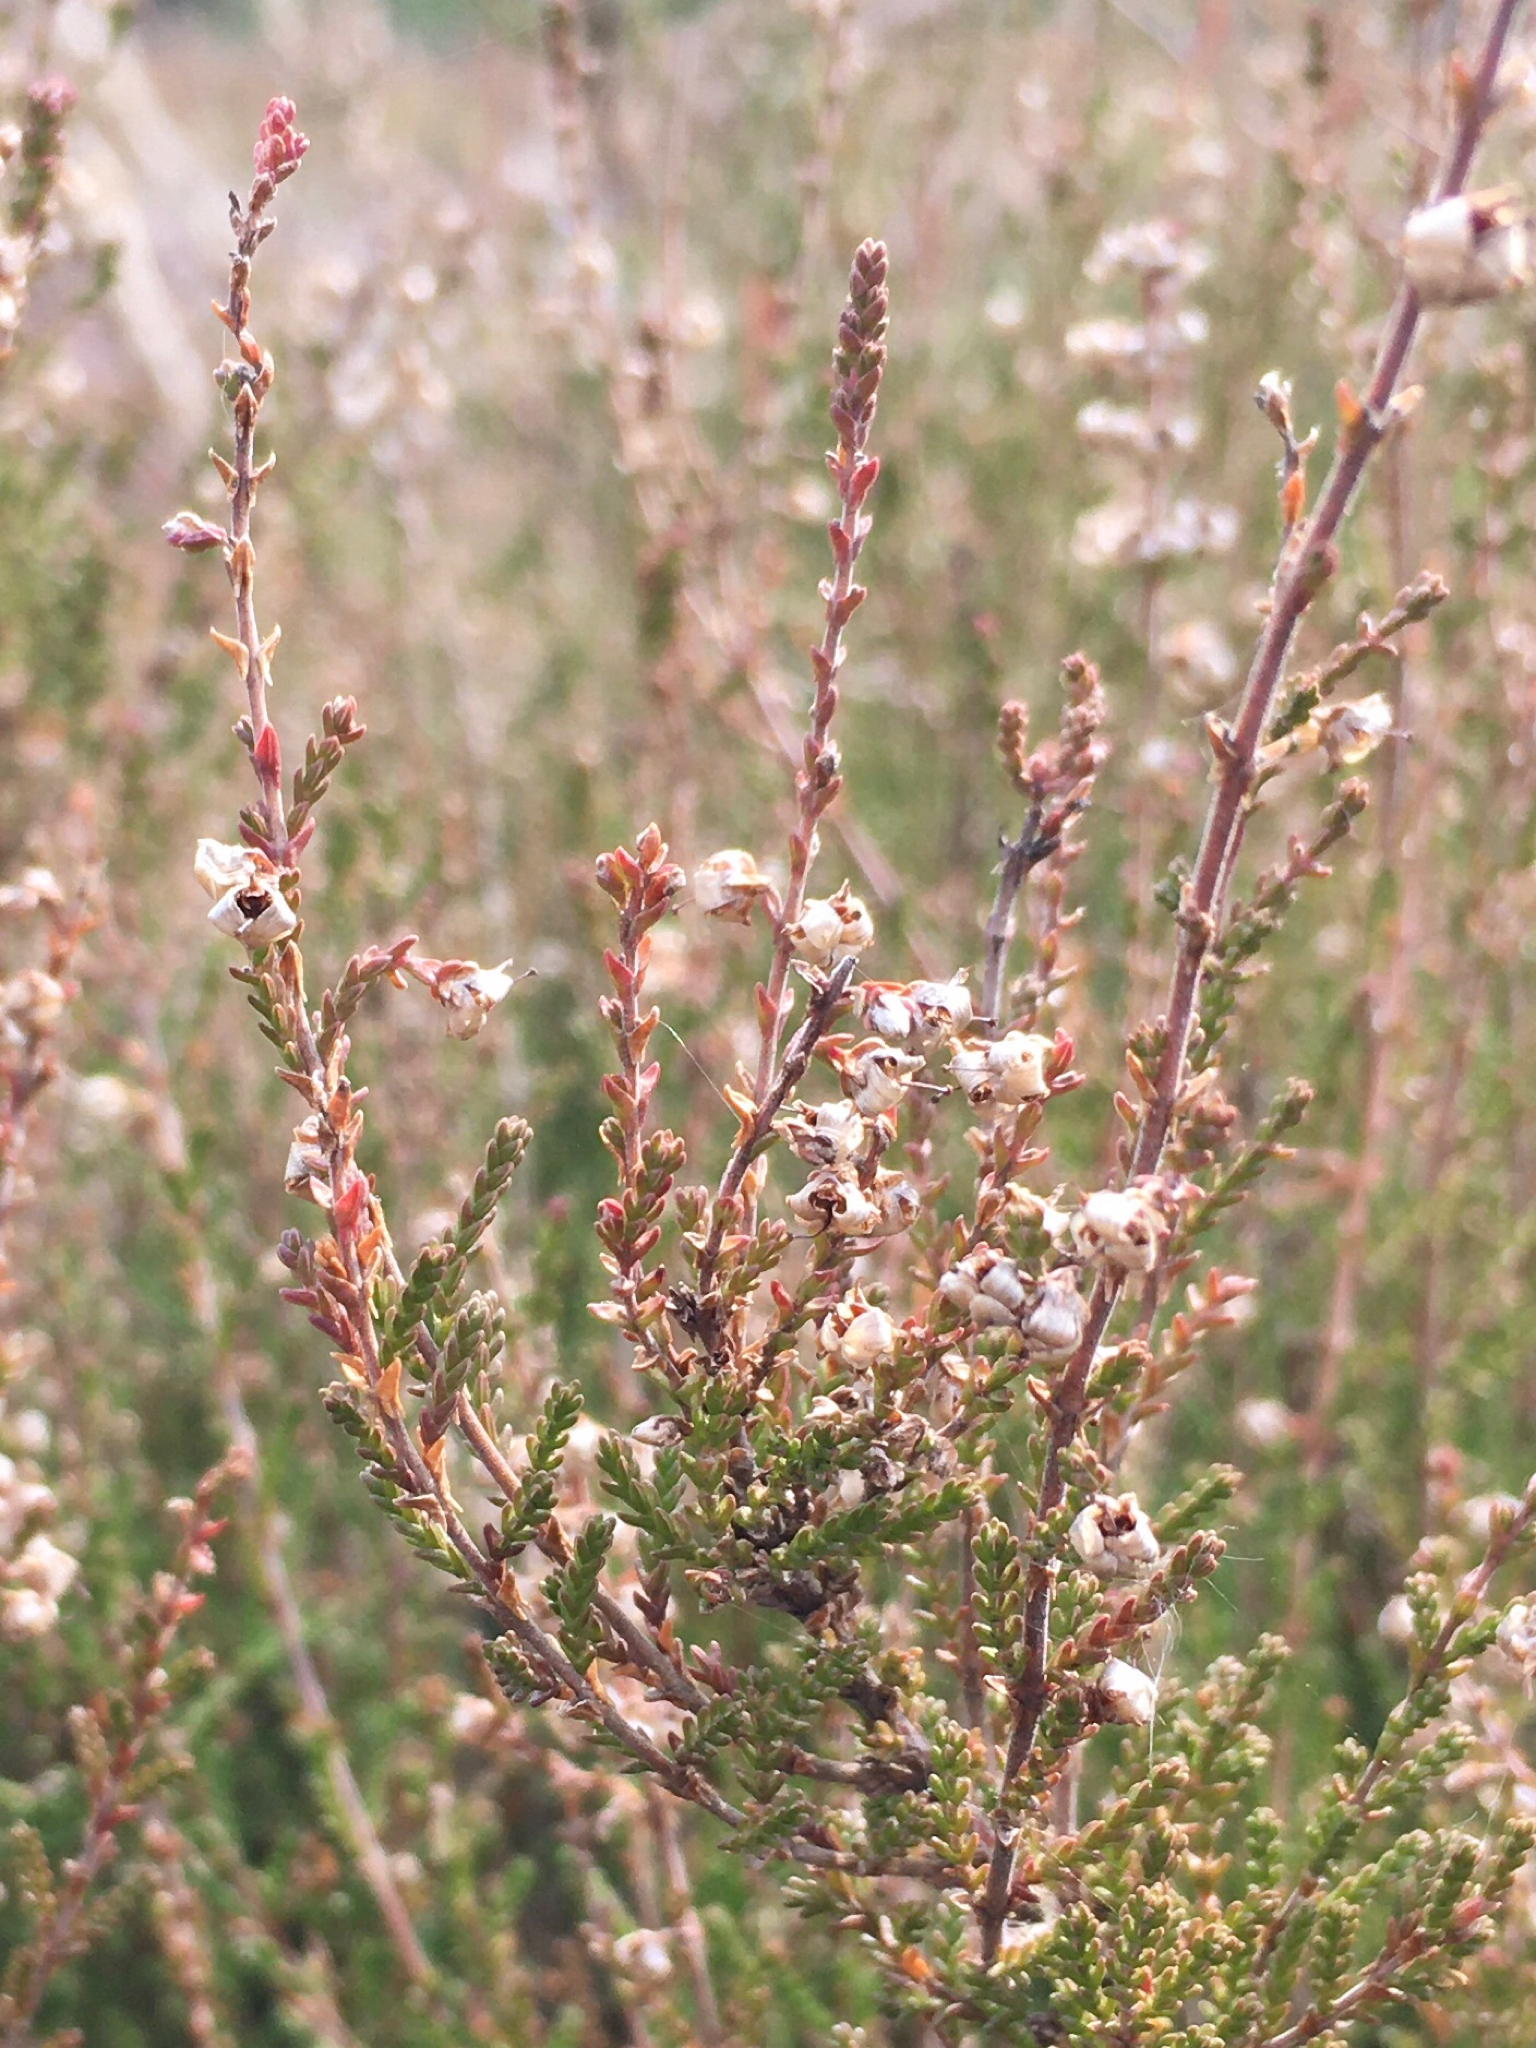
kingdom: Plantae
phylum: Tracheophyta
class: Magnoliopsida
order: Ericales
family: Ericaceae
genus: Calluna
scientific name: Calluna vulgaris
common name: Heather
